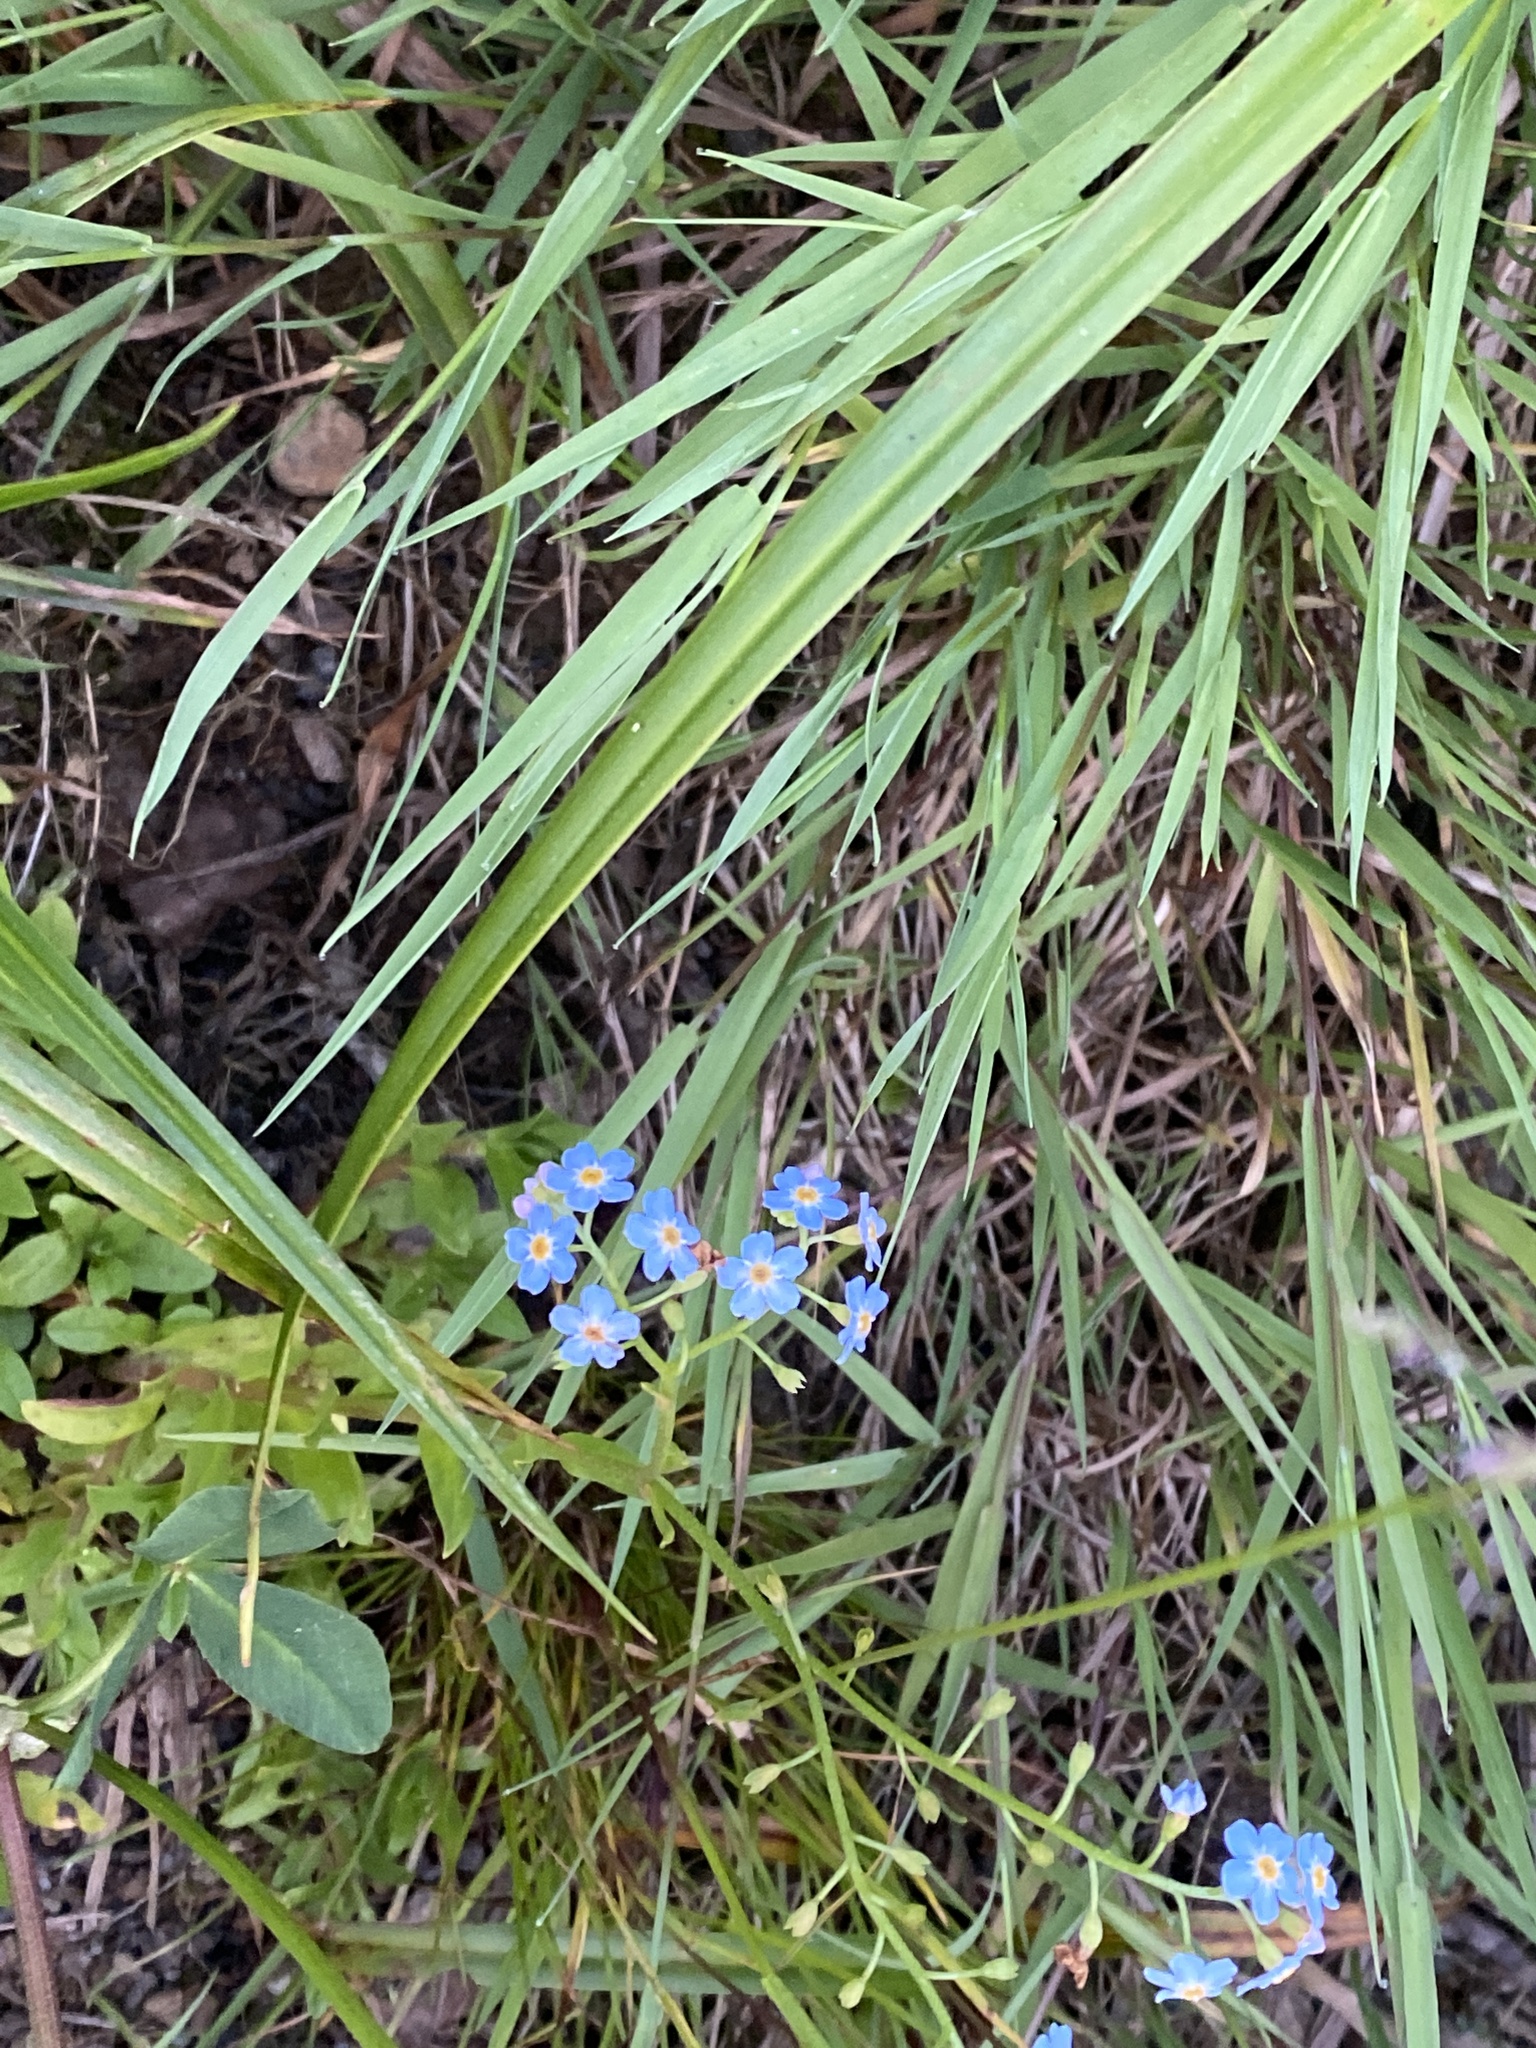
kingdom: Plantae
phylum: Tracheophyta
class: Magnoliopsida
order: Boraginales
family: Boraginaceae
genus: Myosotis
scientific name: Myosotis scorpioides
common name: Water forget-me-not
